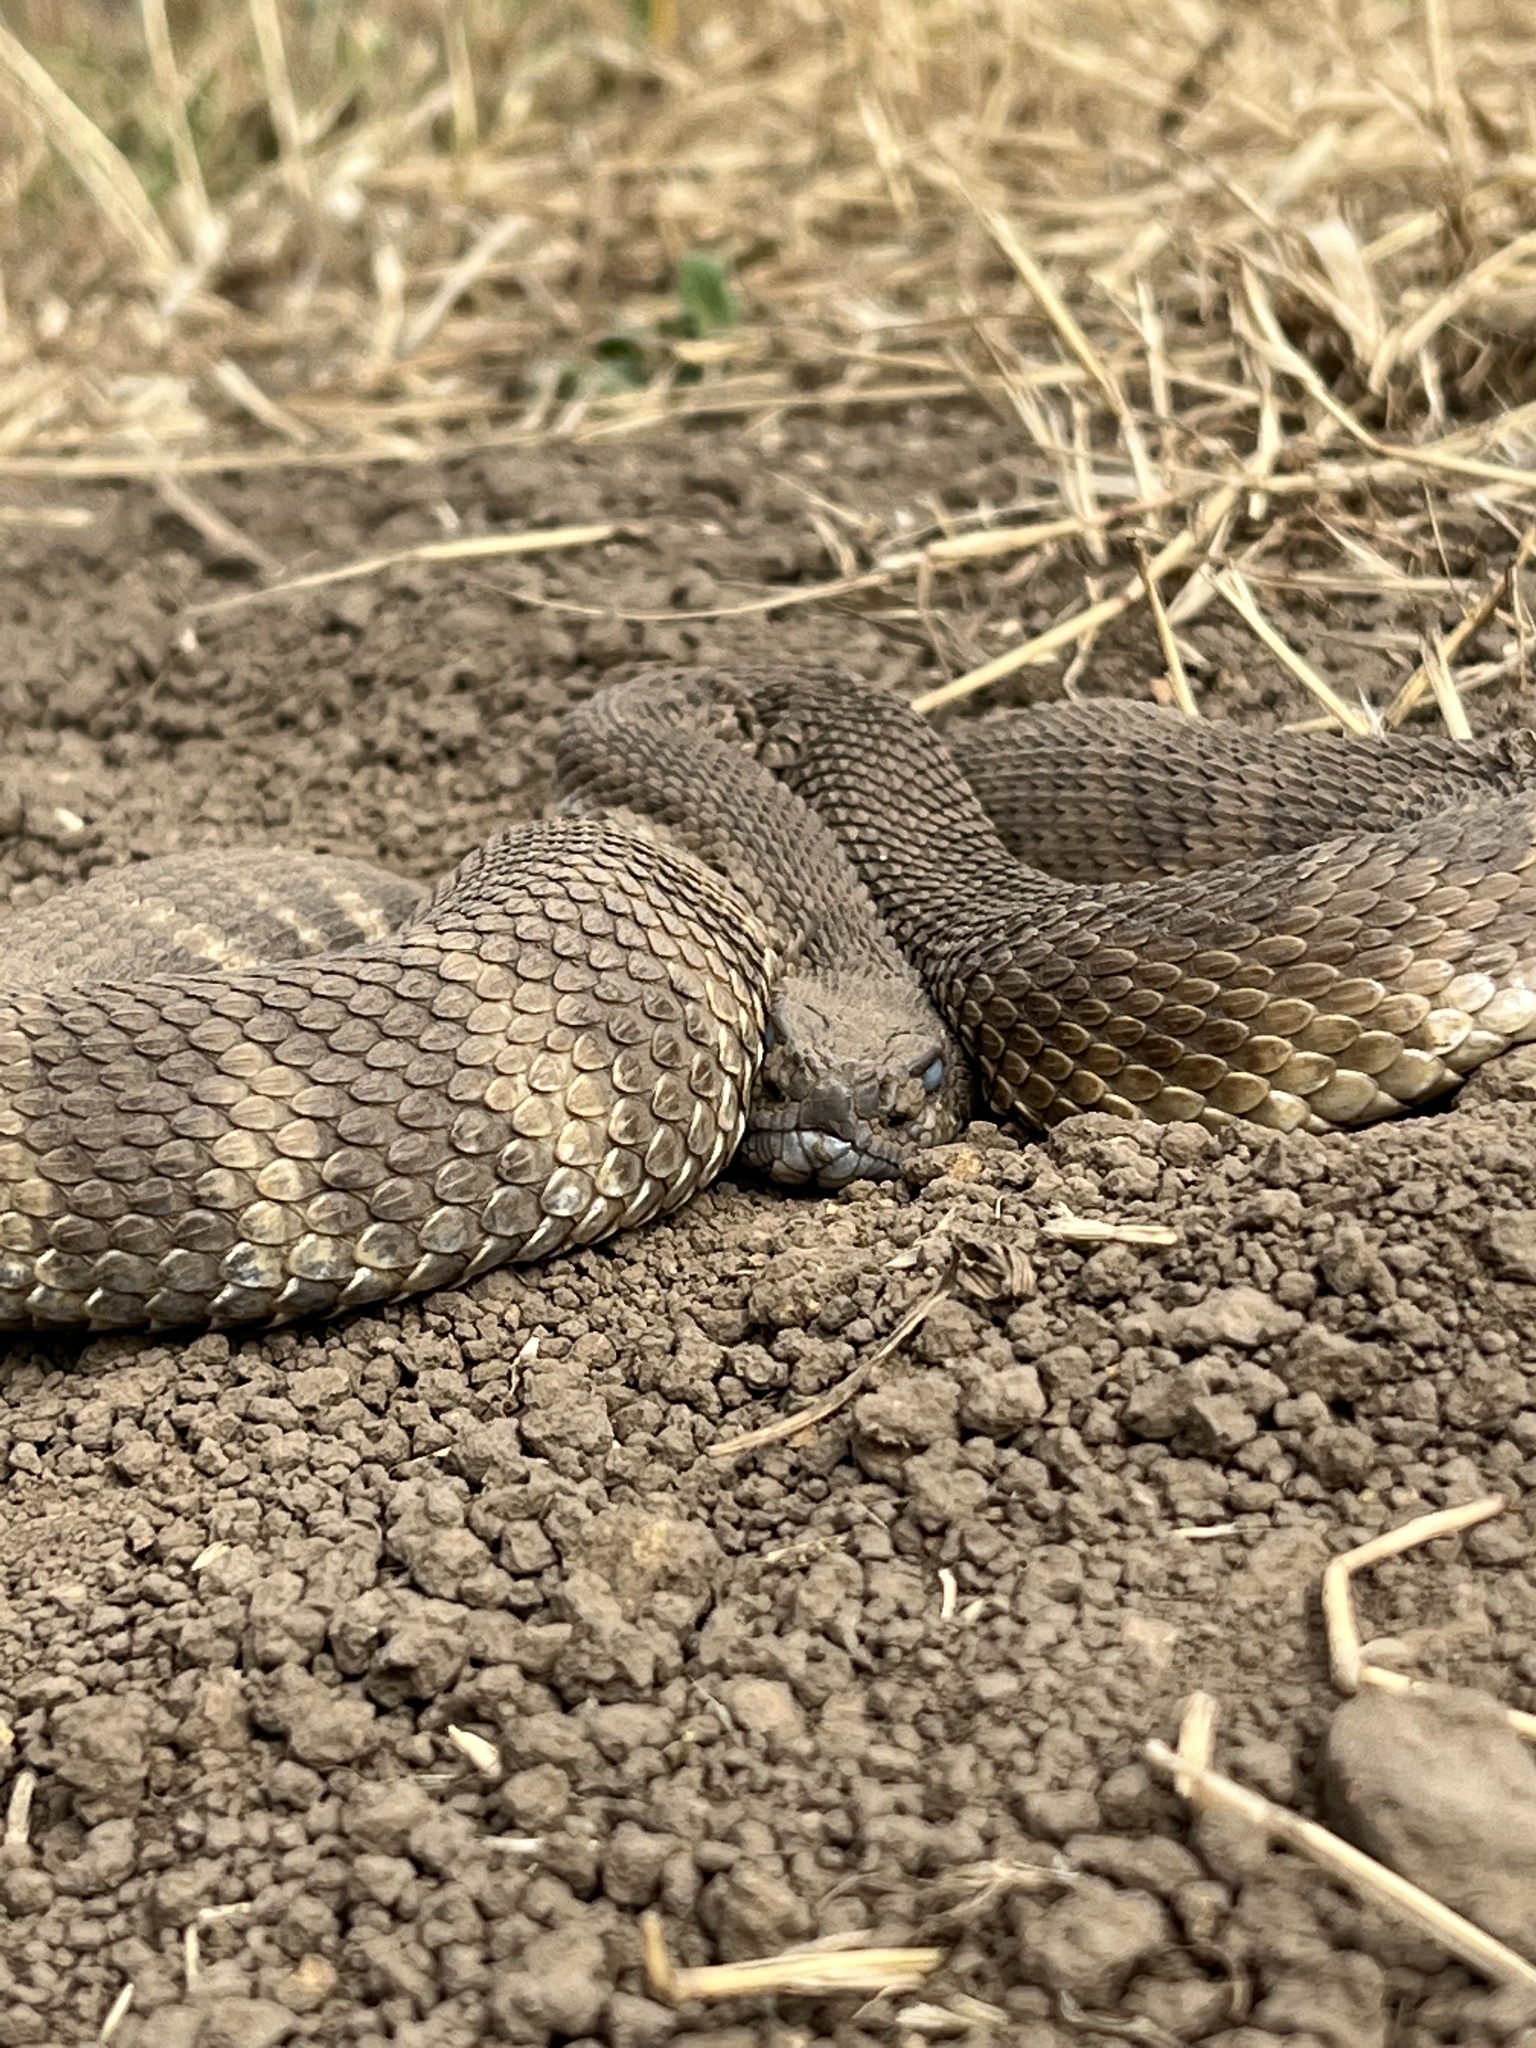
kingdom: Animalia
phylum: Chordata
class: Squamata
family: Viperidae
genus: Crotalus
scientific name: Crotalus oreganus
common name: Abyssus
